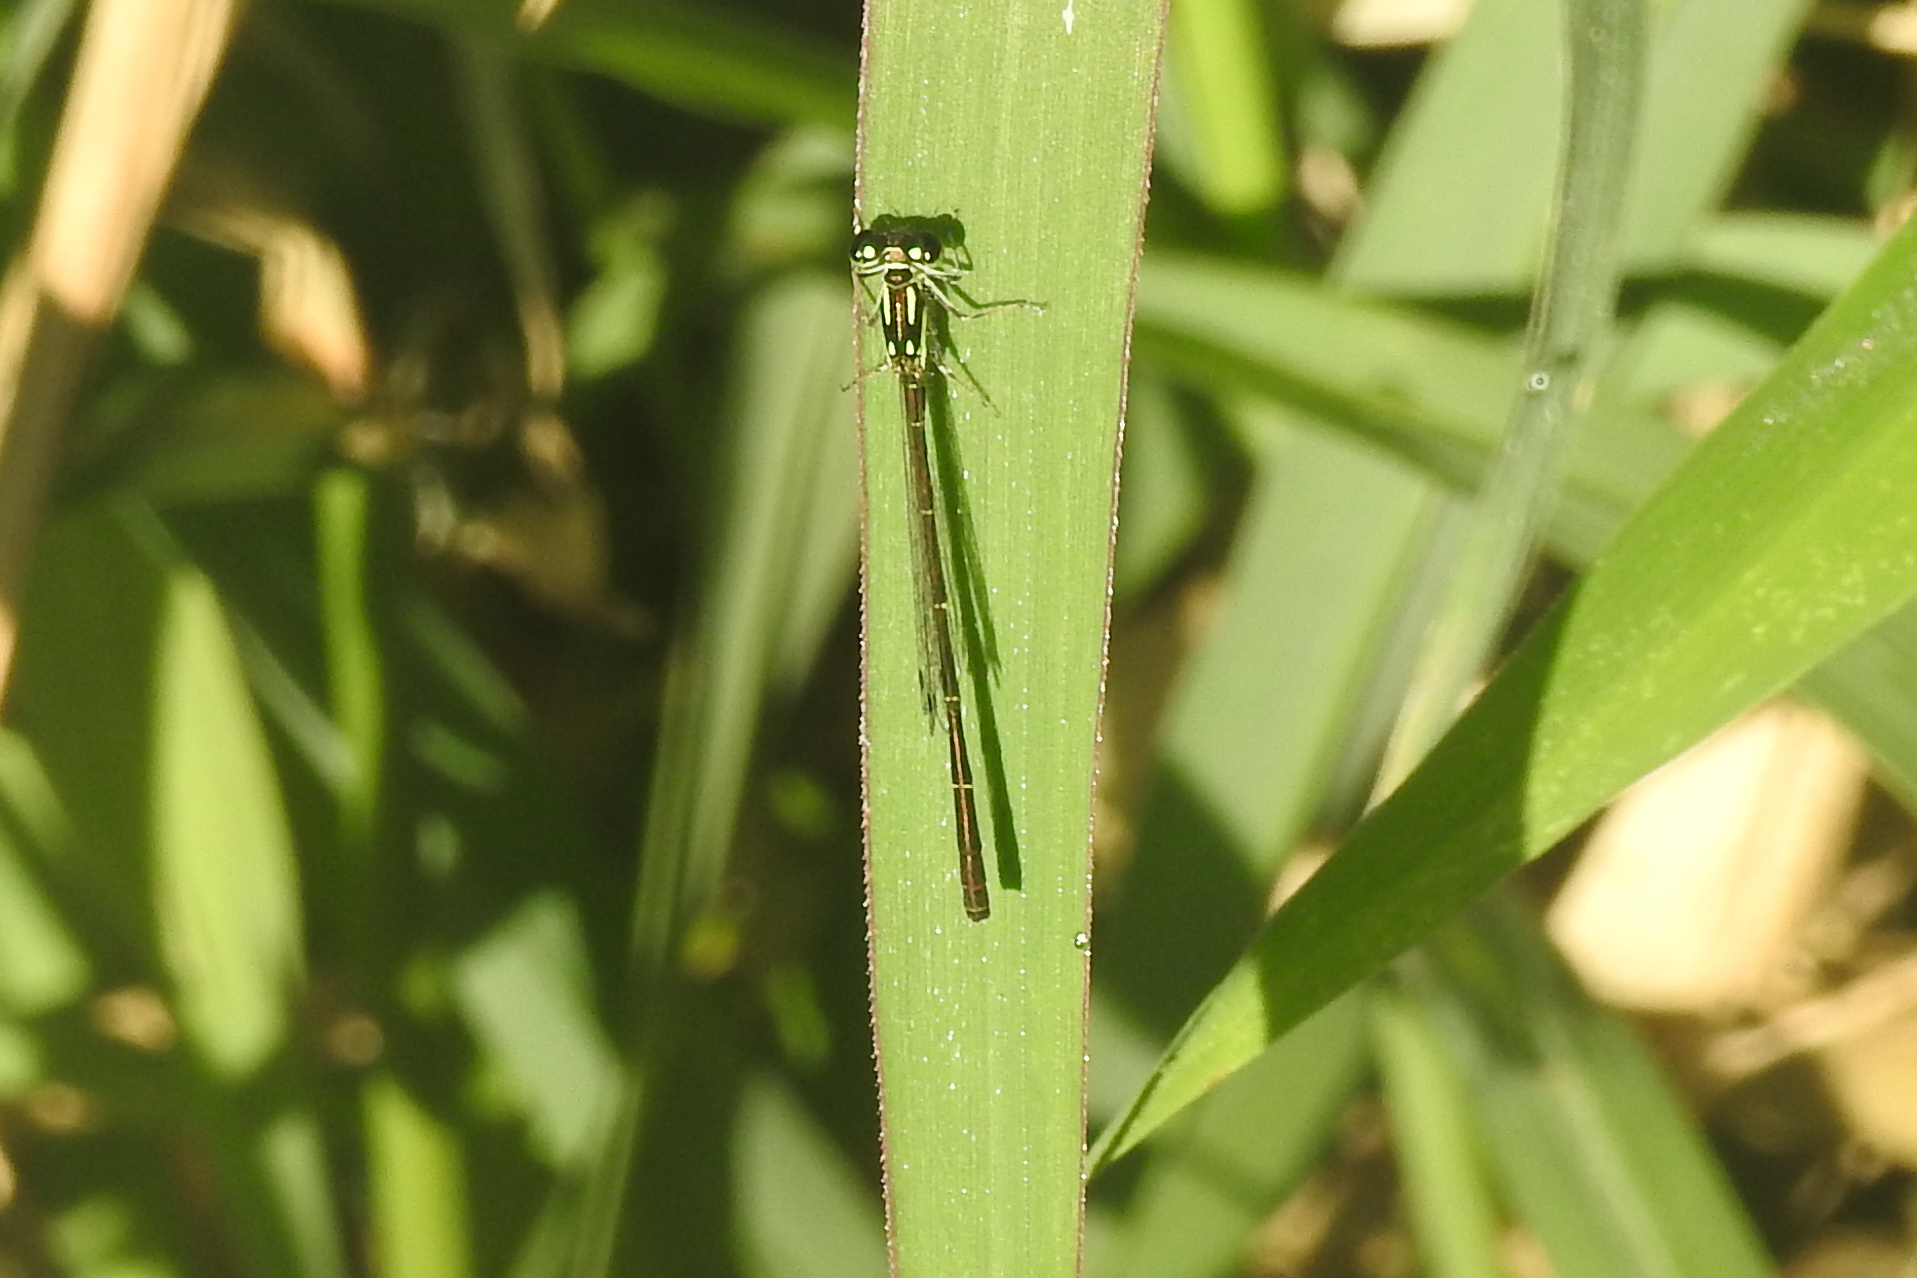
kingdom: Animalia
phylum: Arthropoda
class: Insecta
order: Odonata
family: Coenagrionidae
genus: Ischnura
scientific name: Ischnura posita
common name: Fragile forktail
